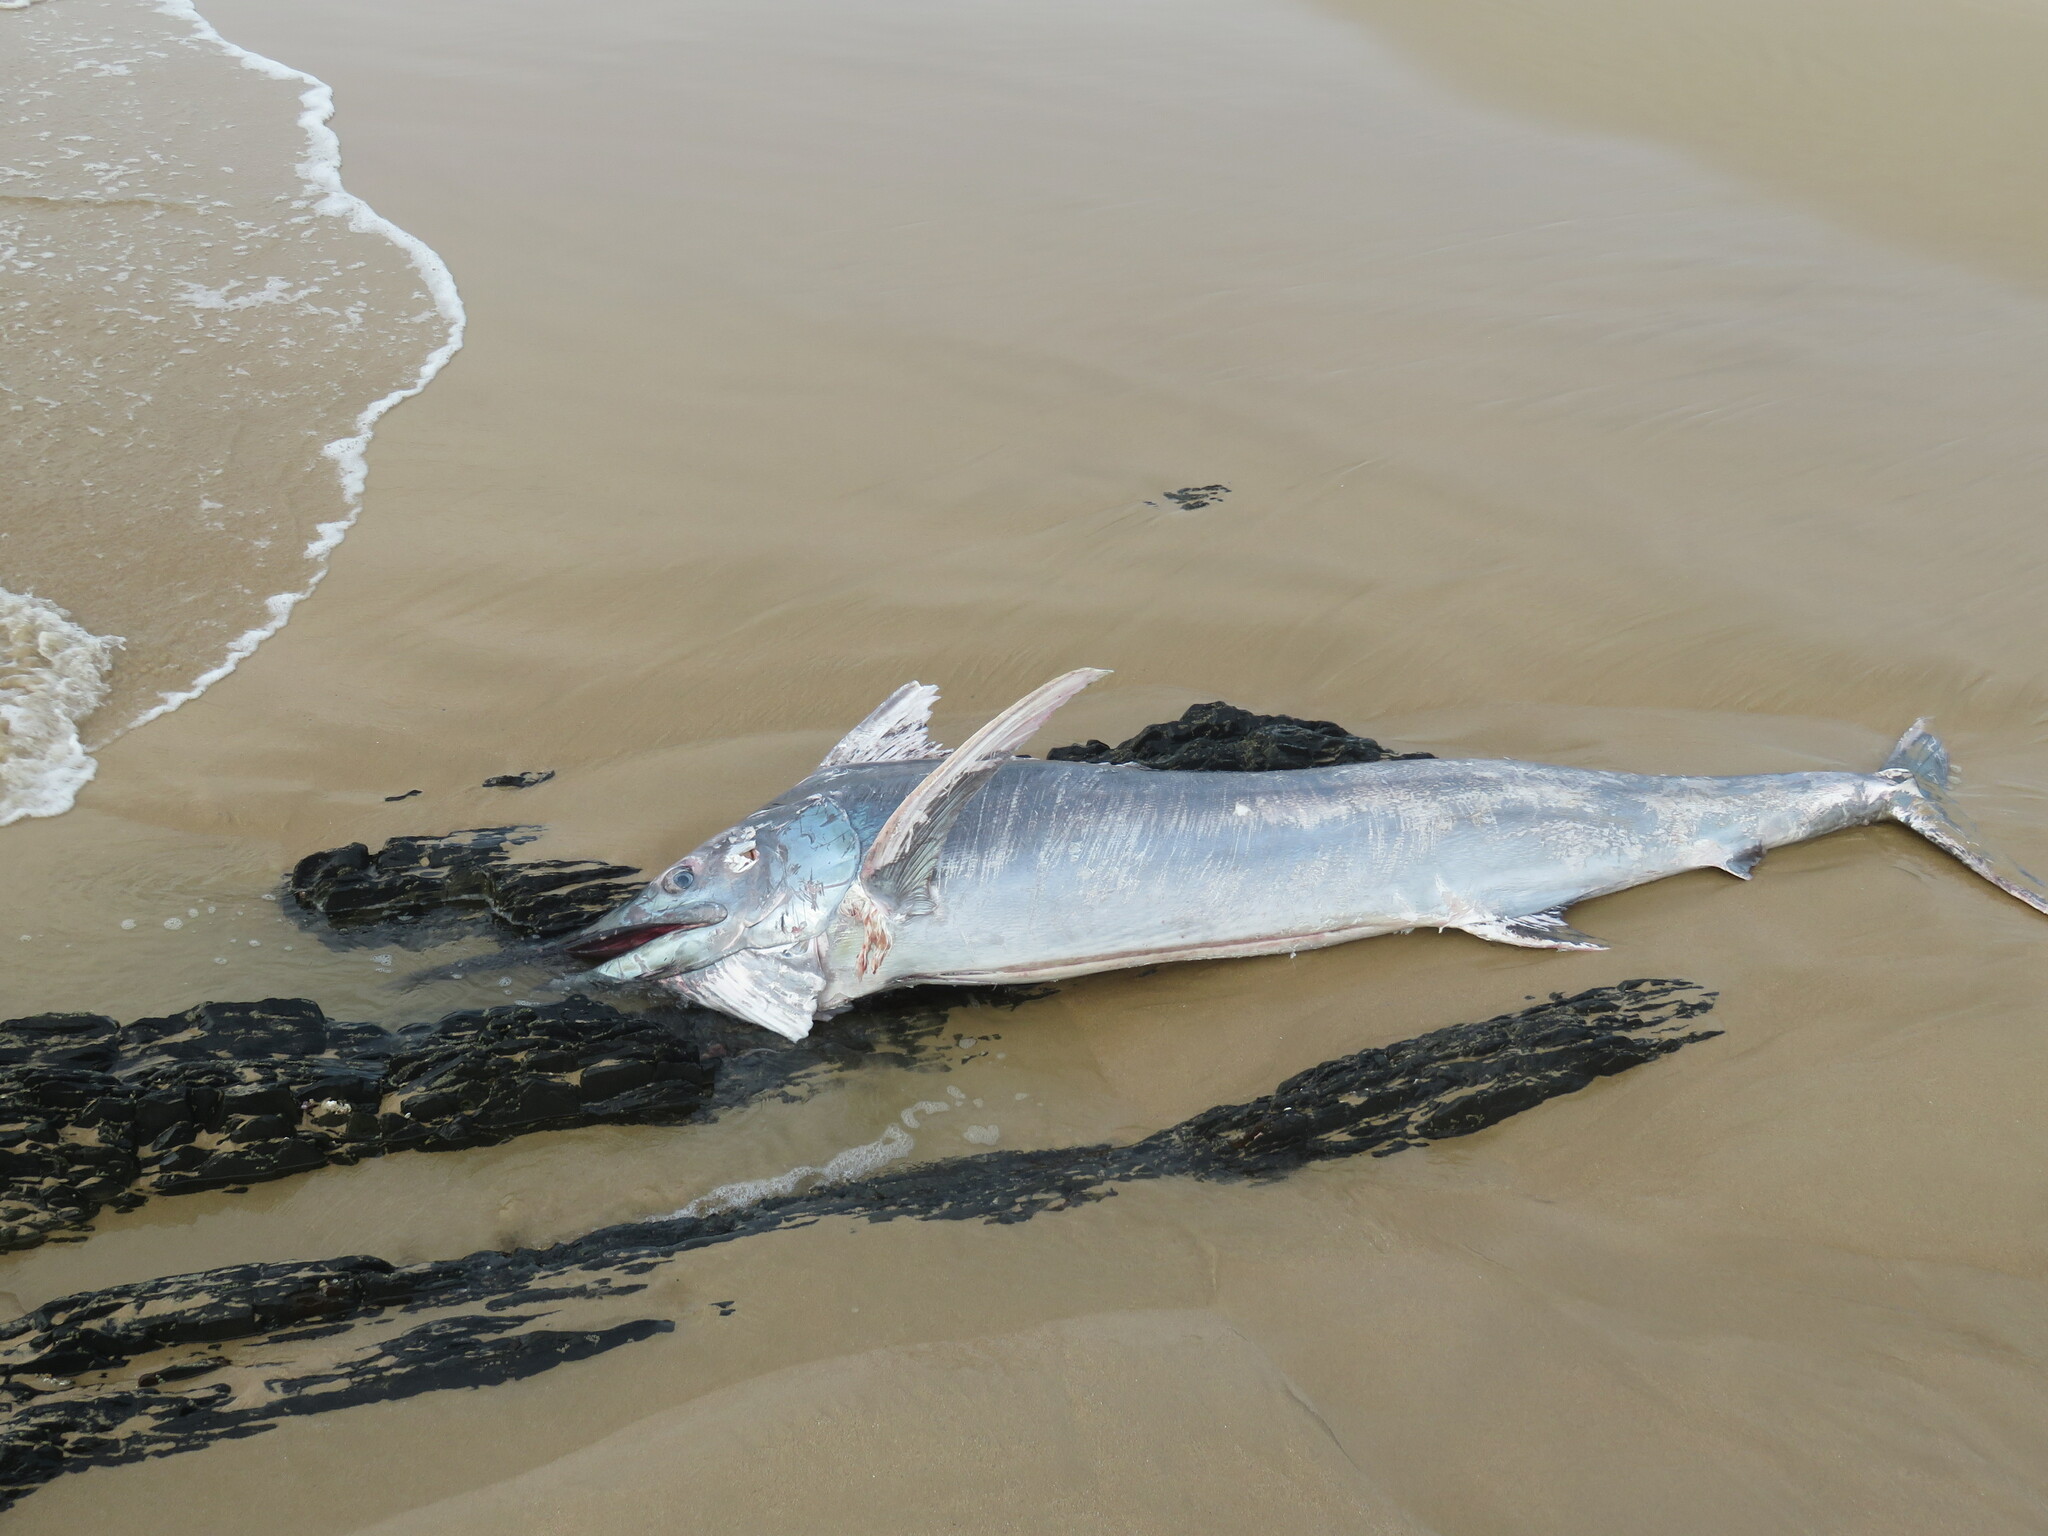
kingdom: Animalia
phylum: Chordata
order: Perciformes
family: Istiophoridae
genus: Makaira
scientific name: Makaira nigricans
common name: Blue marlin
